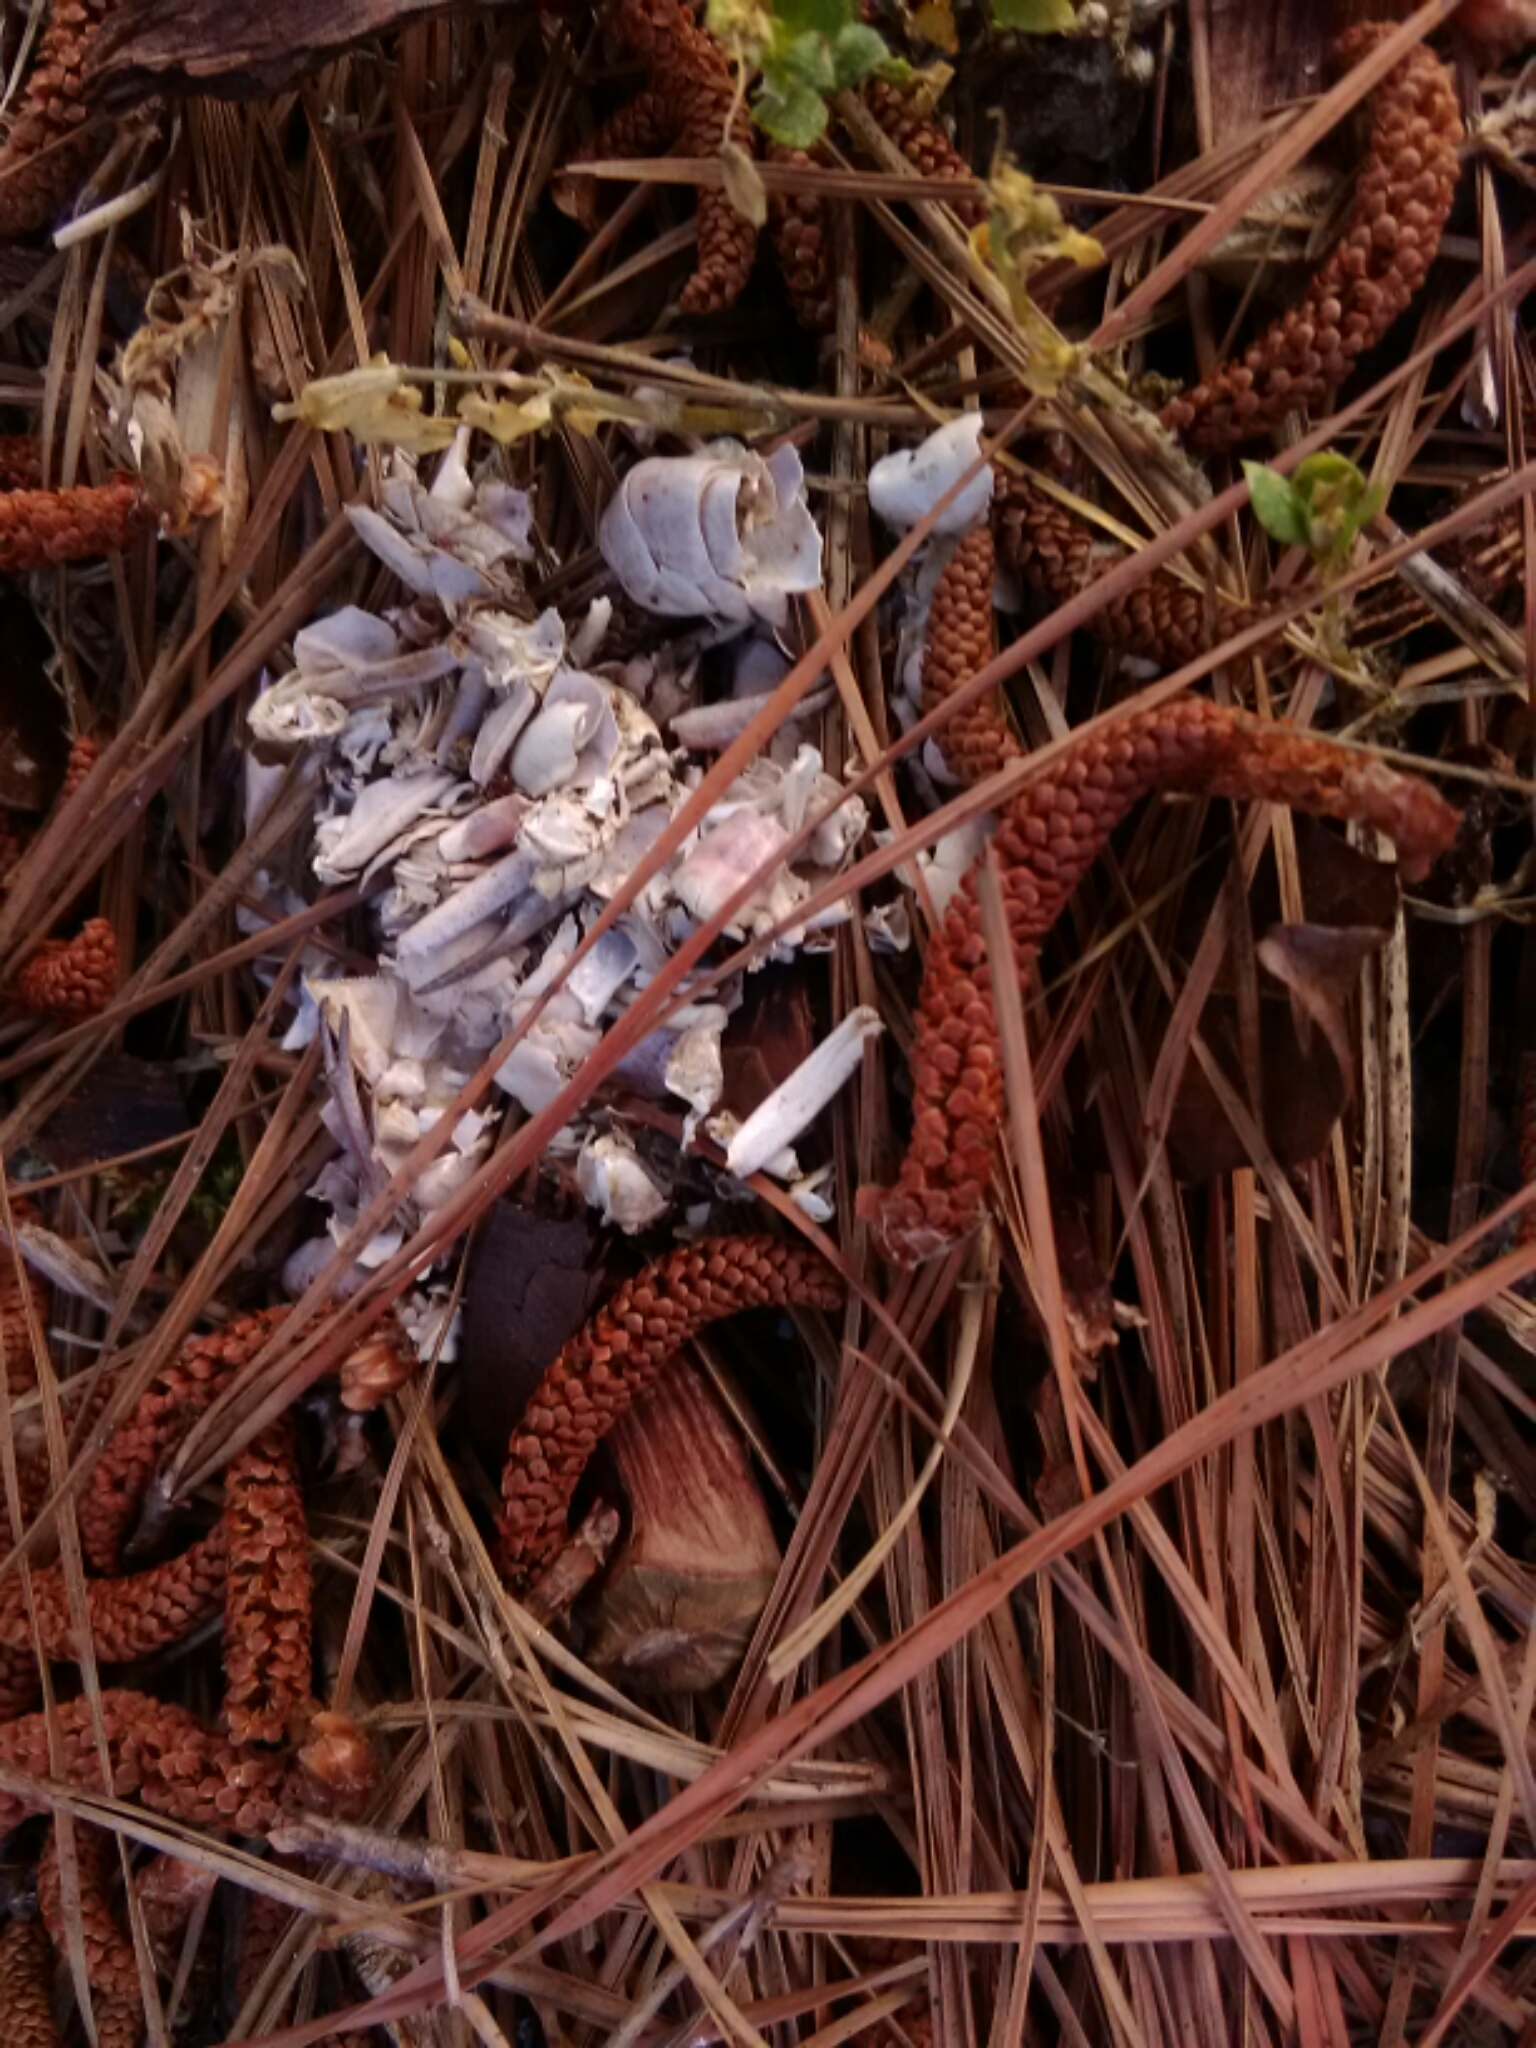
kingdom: Animalia
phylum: Arthropoda
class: Malacostraca
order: Decapoda
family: Cambaridae
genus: Procambarus
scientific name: Procambarus clarkii
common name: Red swamp crayfish
